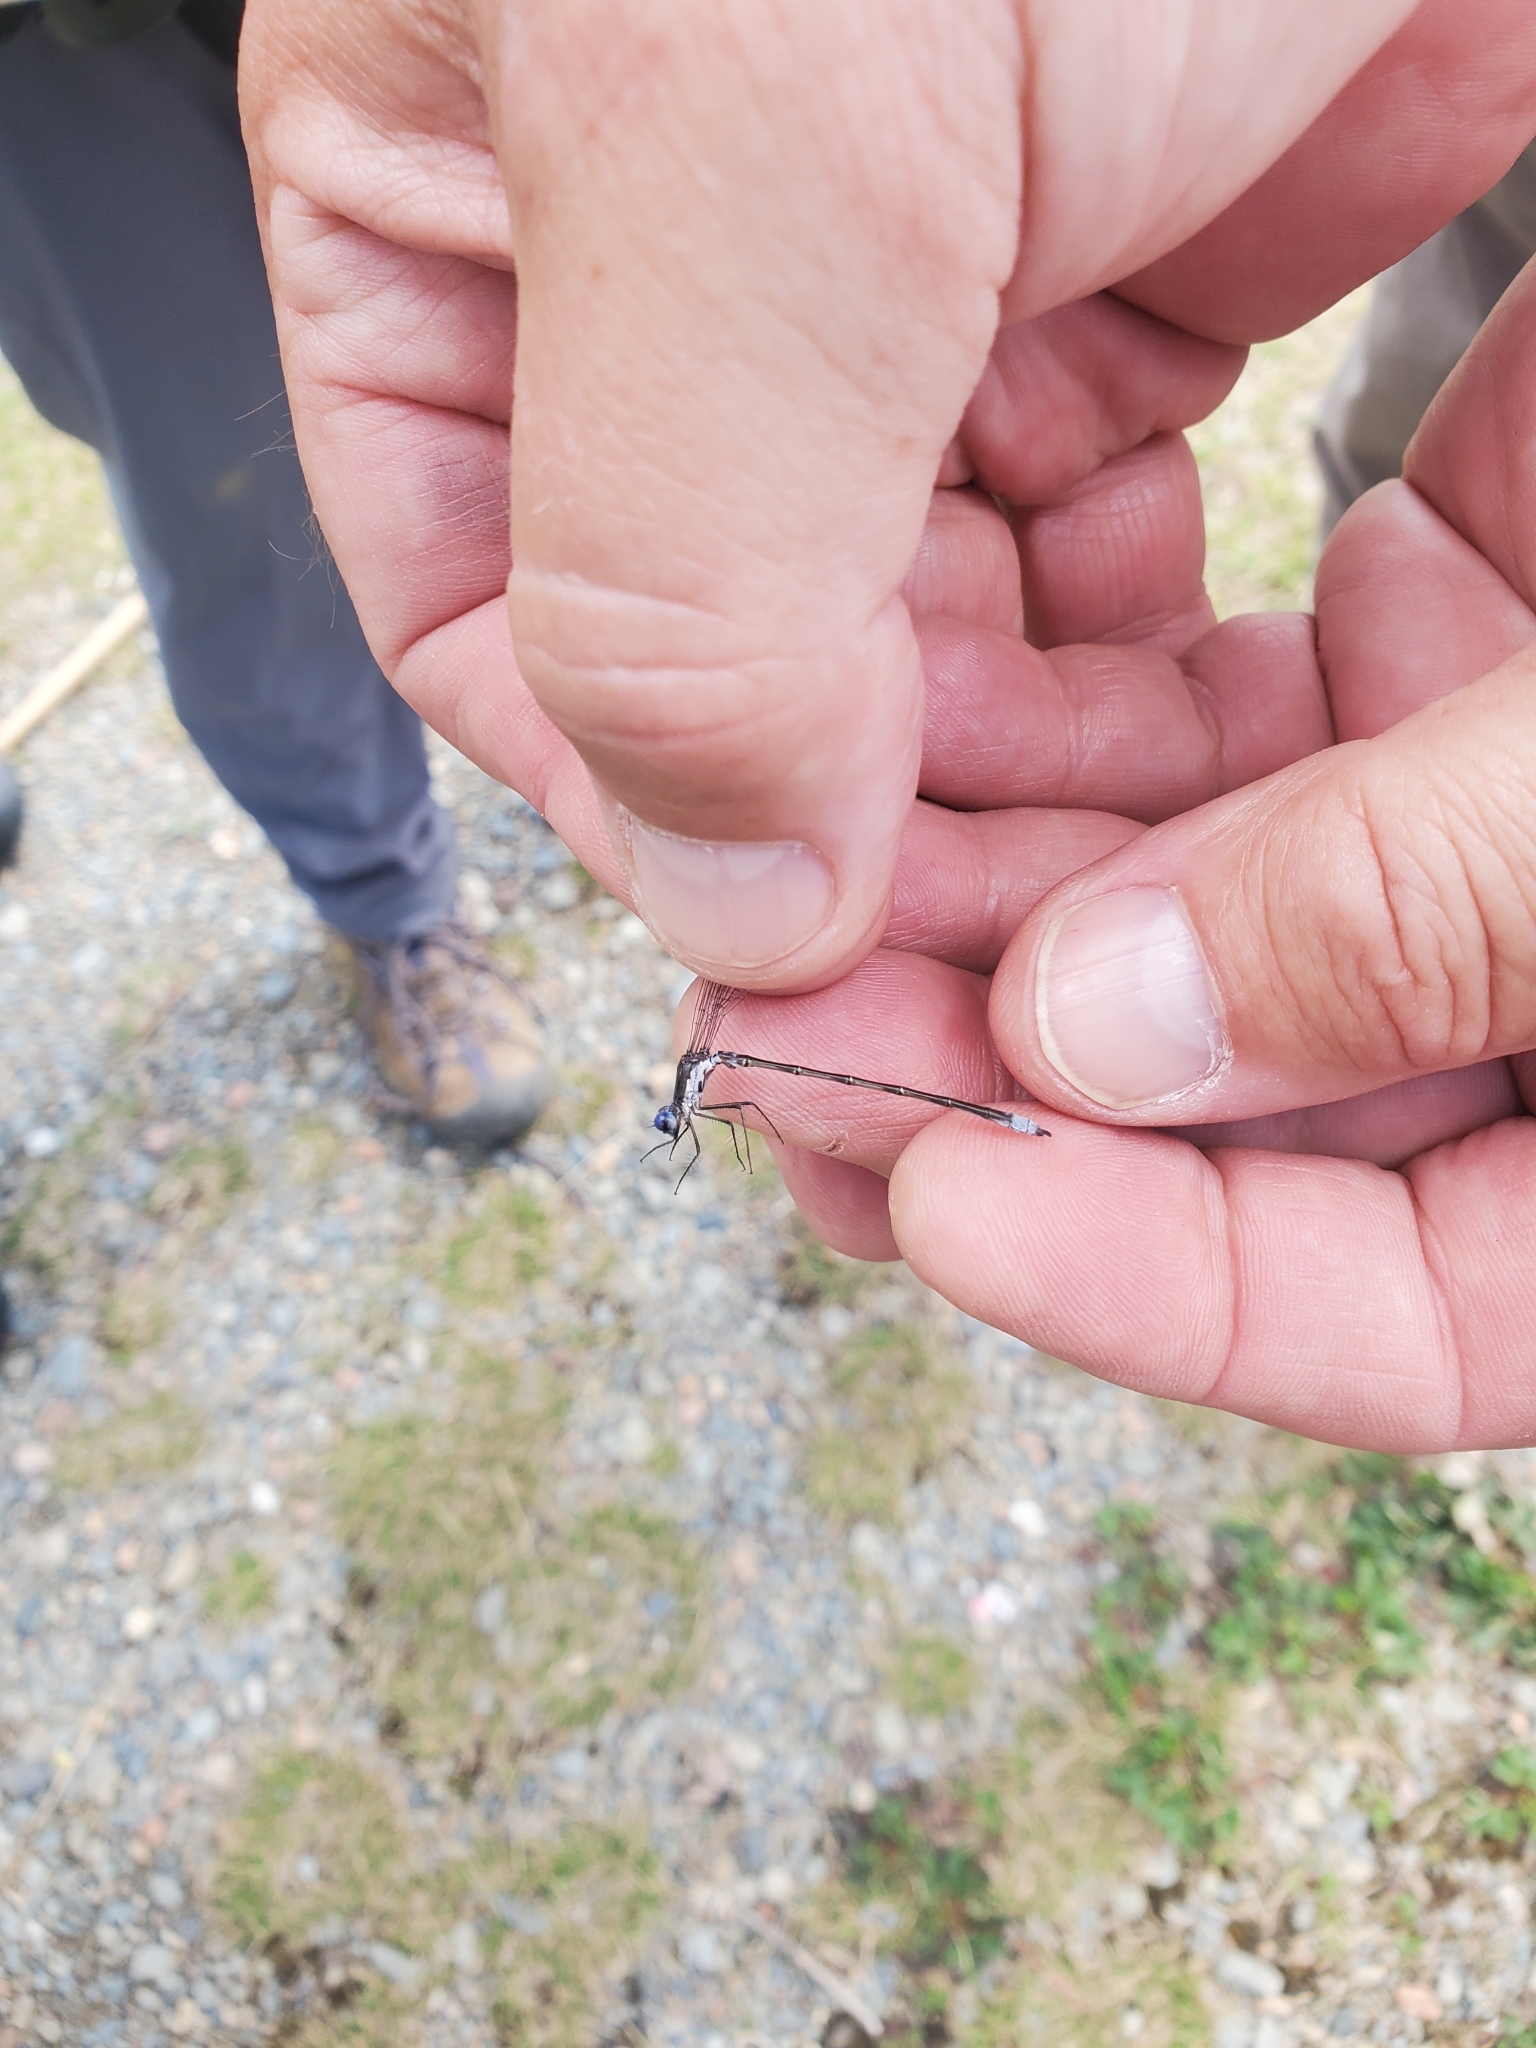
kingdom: Animalia
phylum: Arthropoda
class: Insecta
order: Odonata
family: Lestidae
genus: Lestes
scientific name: Lestes congener
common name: Spotted spreadwing
